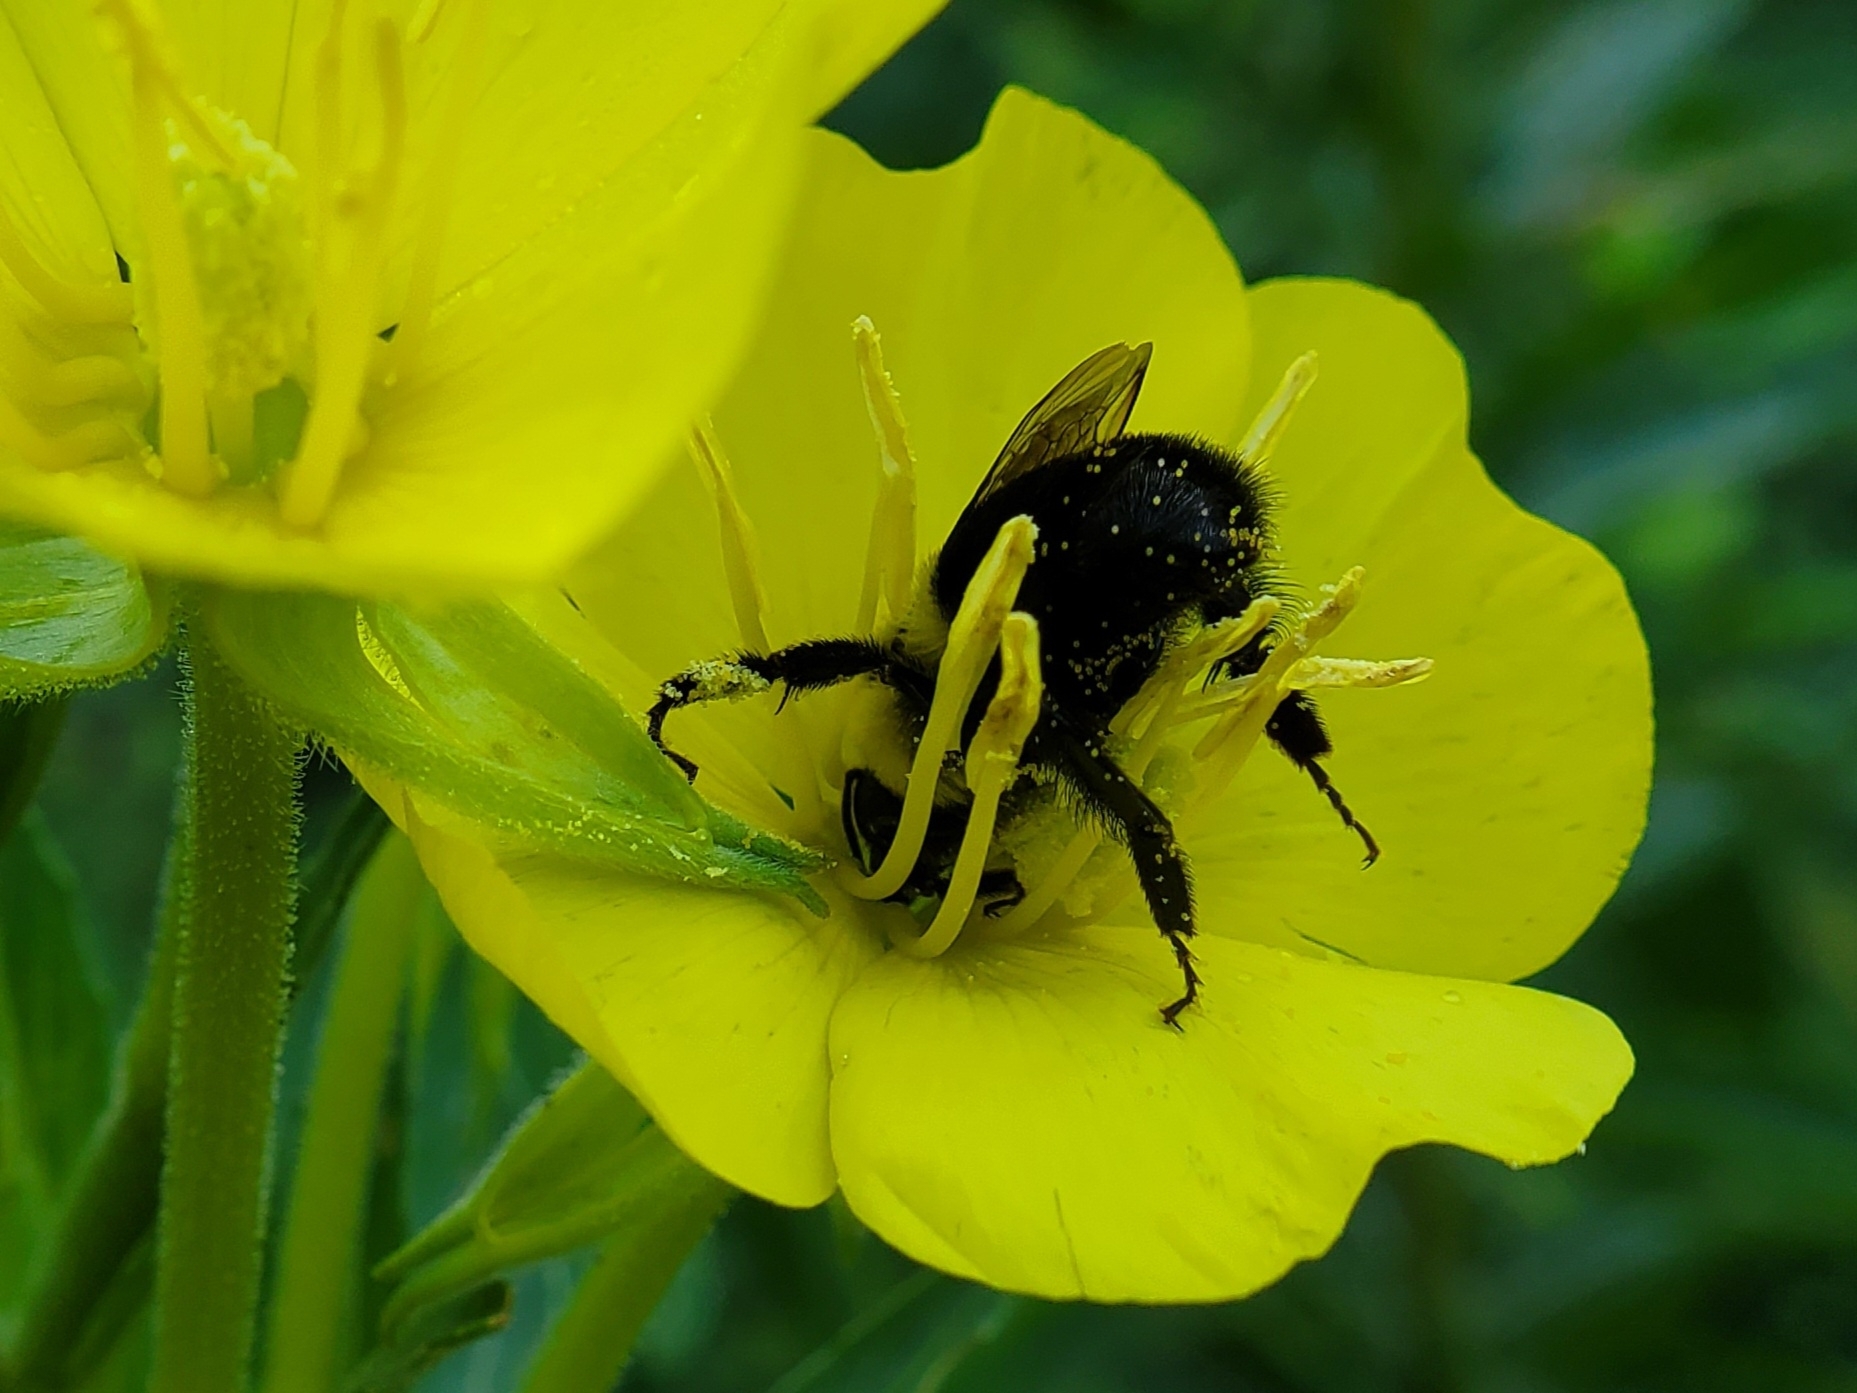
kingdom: Animalia
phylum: Arthropoda
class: Insecta
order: Hymenoptera
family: Apidae
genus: Bombus
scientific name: Bombus impatiens
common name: Common eastern bumble bee
